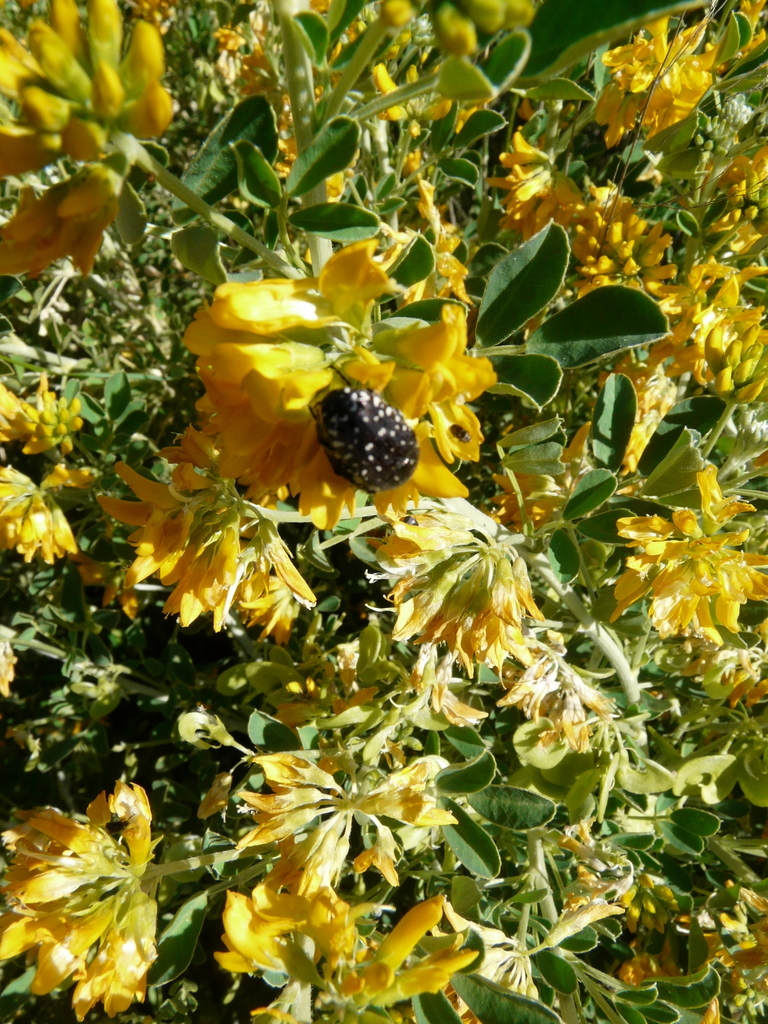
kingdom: Animalia
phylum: Arthropoda
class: Insecta
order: Coleoptera
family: Scarabaeidae
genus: Oxythyrea
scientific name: Oxythyrea funesta
